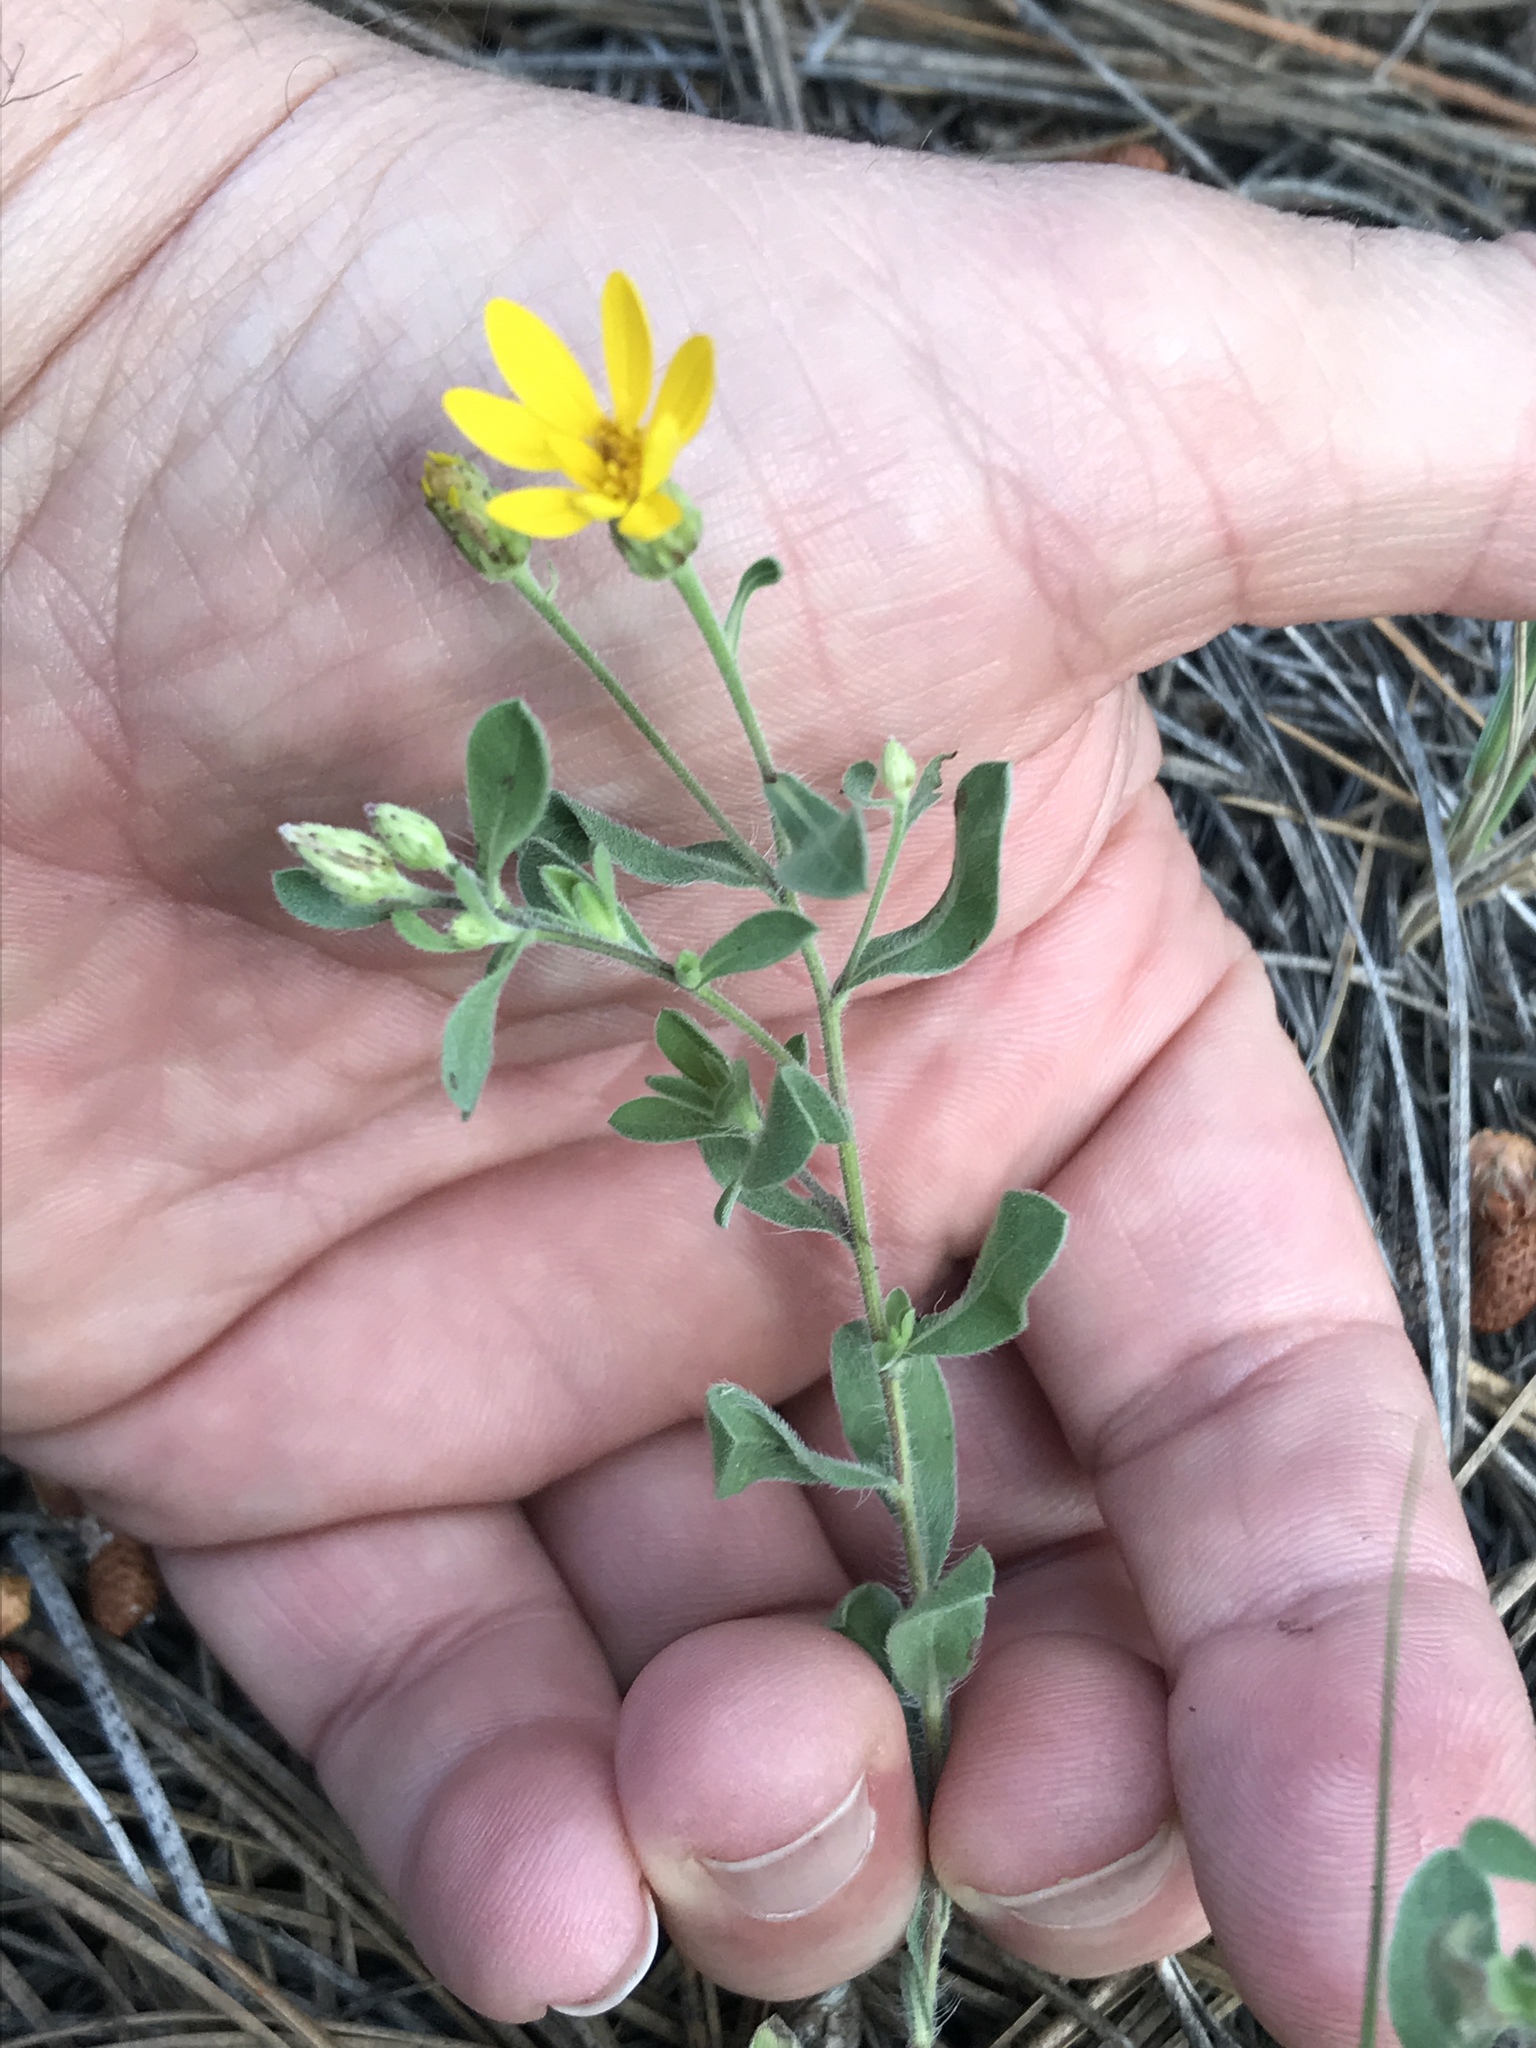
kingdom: Plantae
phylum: Tracheophyta
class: Magnoliopsida
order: Asterales
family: Asteraceae
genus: Heterotheca
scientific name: Heterotheca hirsutissima
